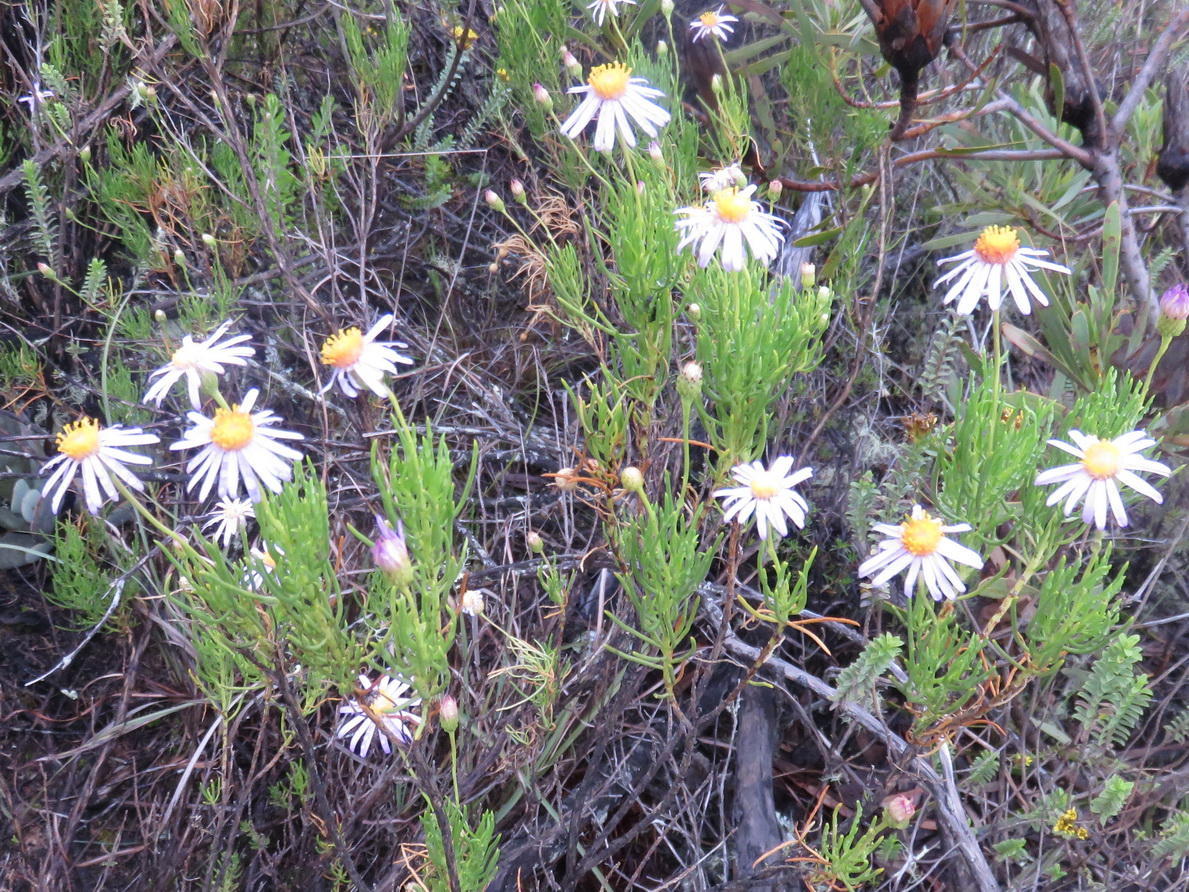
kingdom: Plantae
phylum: Tracheophyta
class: Magnoliopsida
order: Asterales
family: Asteraceae
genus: Felicia
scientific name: Felicia filifolia
